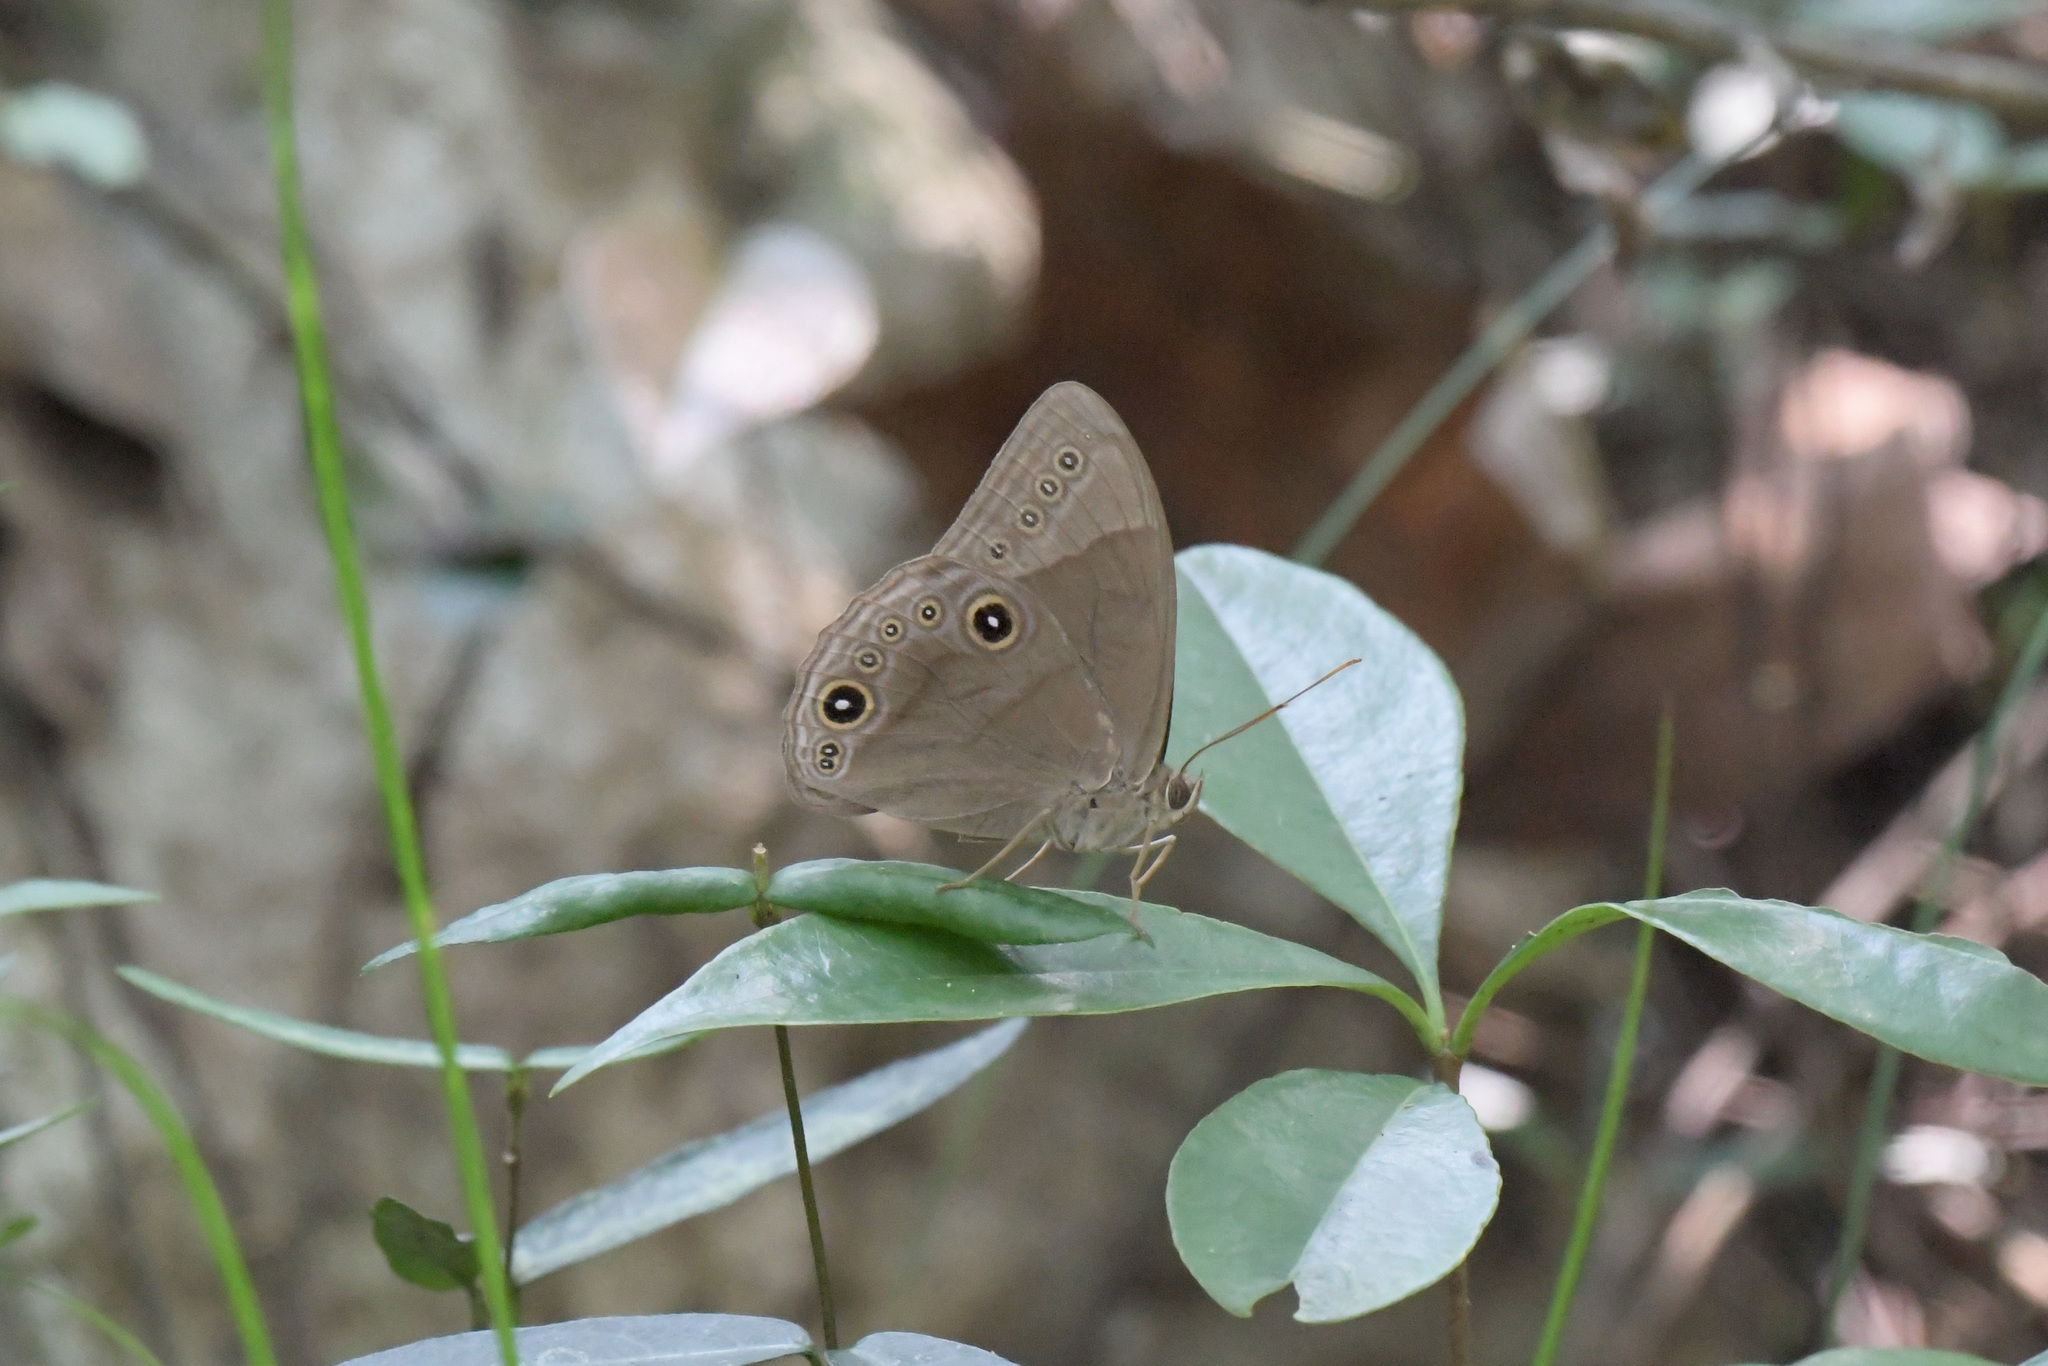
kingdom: Animalia
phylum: Arthropoda
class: Insecta
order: Lepidoptera
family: Nymphalidae
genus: Lethe
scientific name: Lethe lanaris
